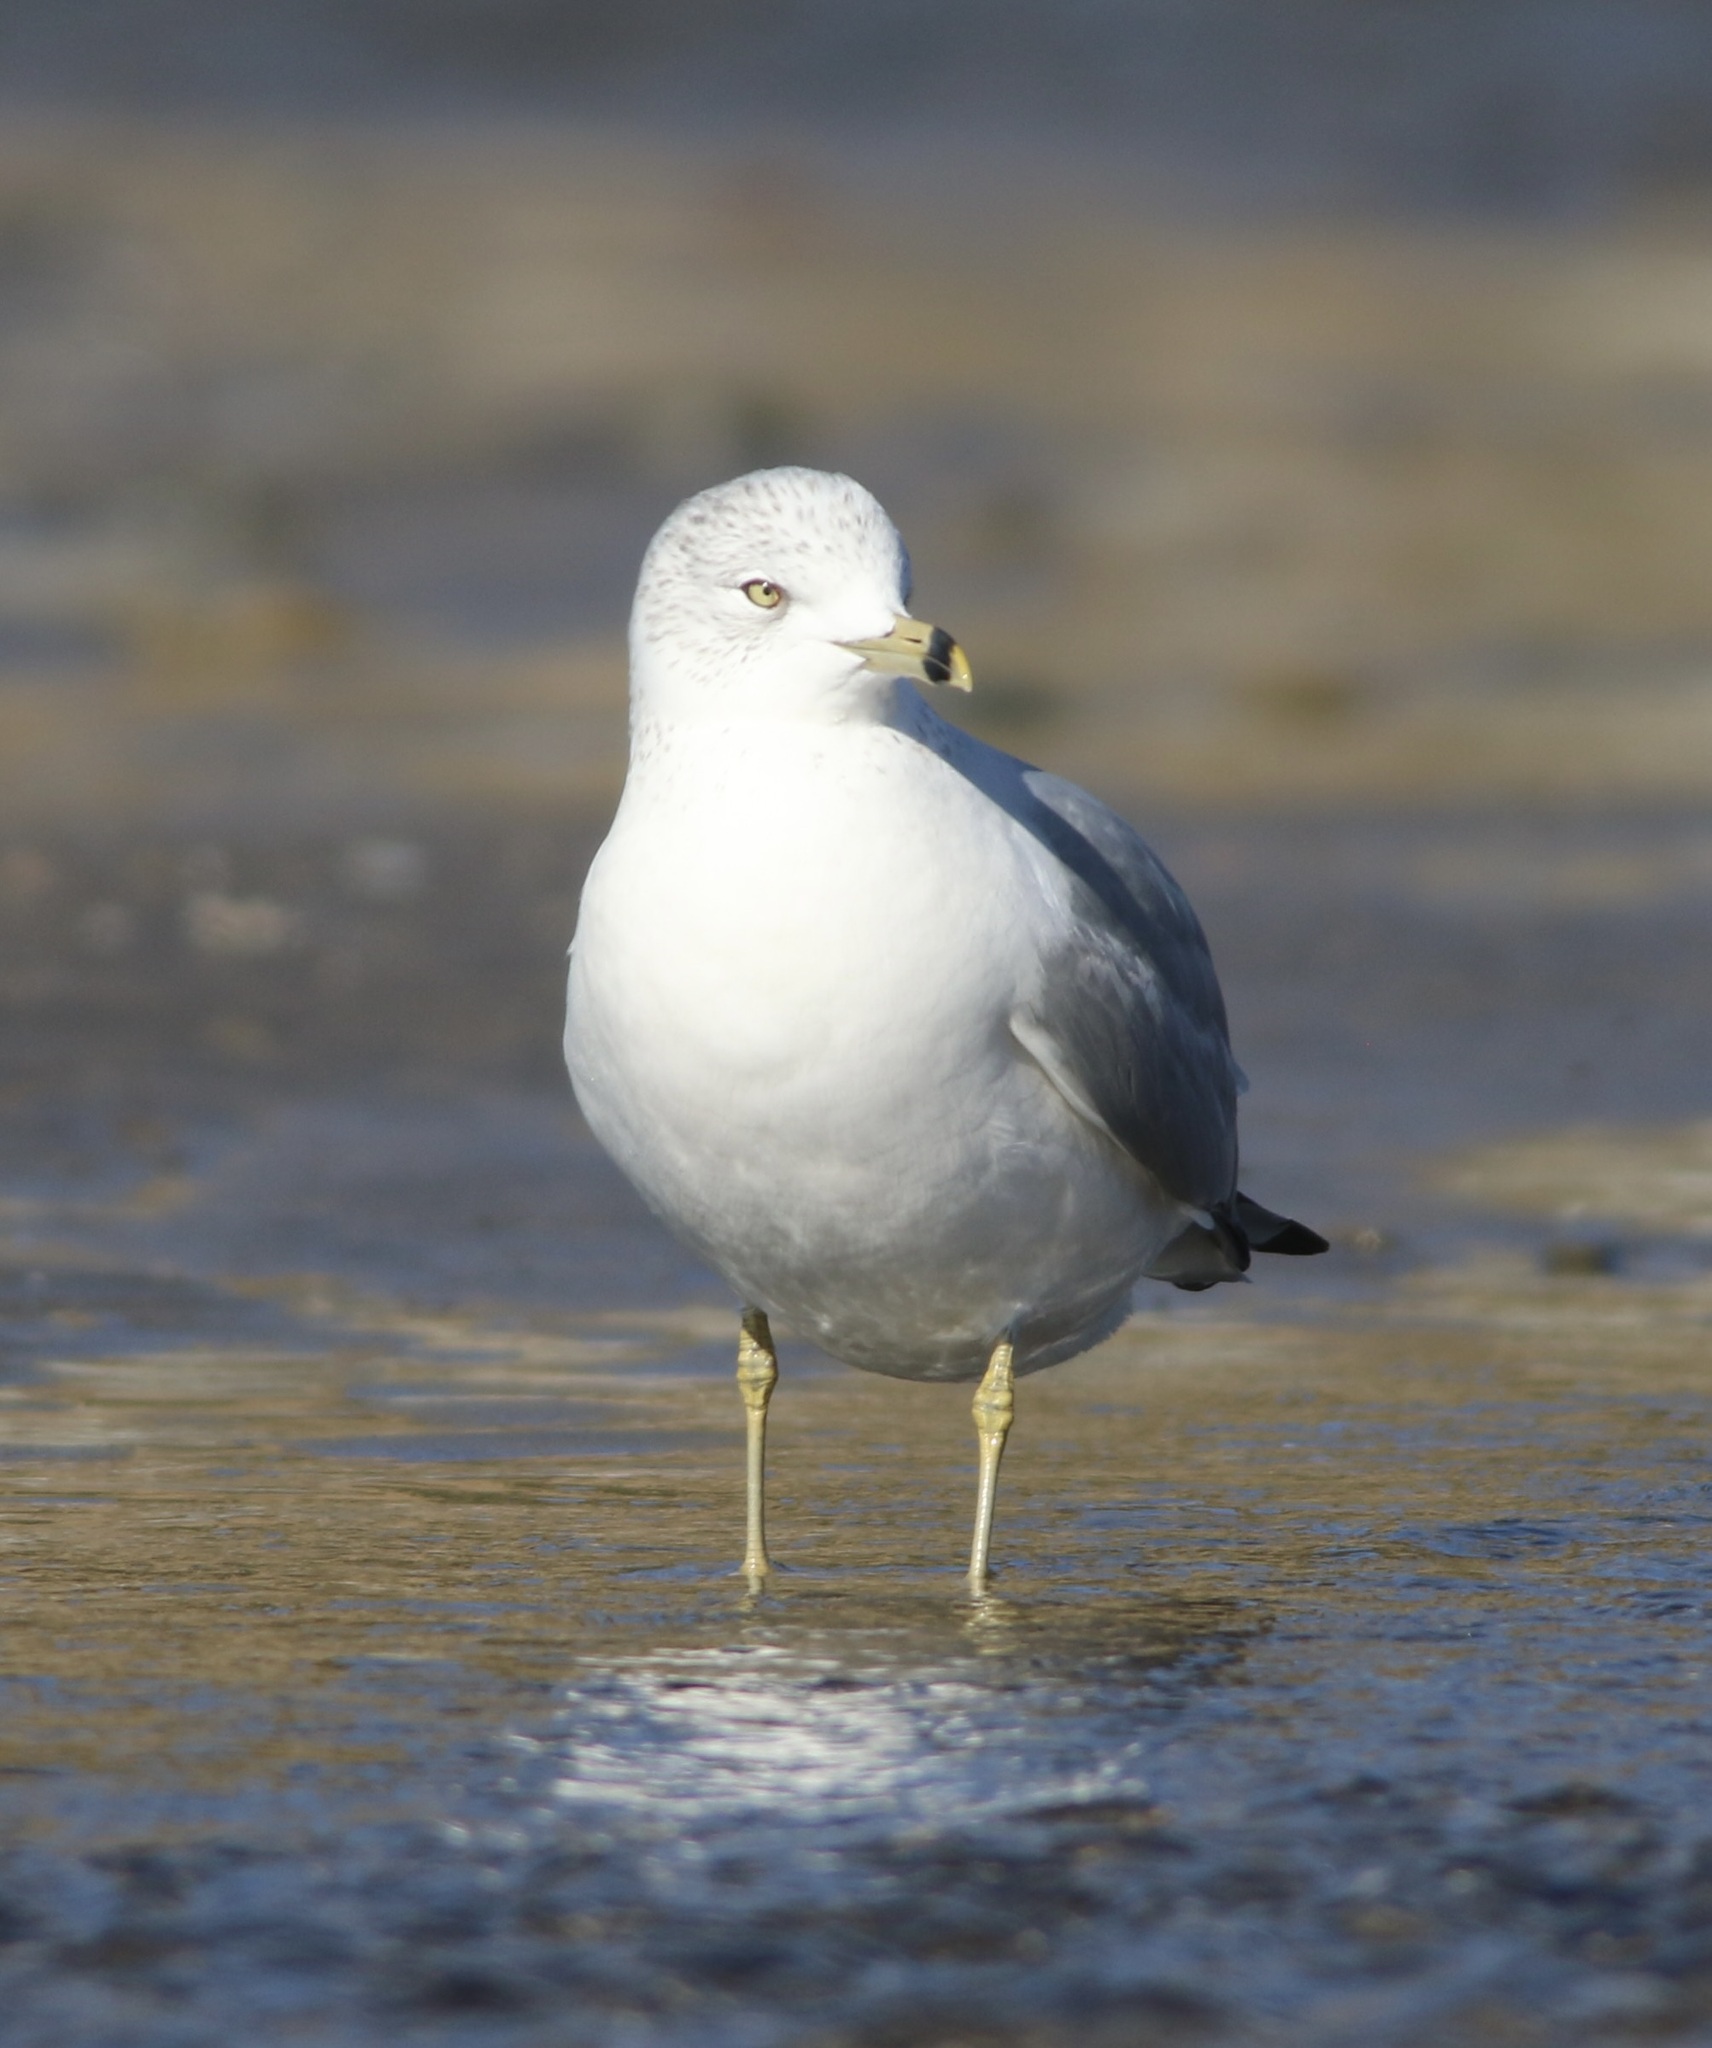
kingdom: Animalia
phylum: Chordata
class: Aves
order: Charadriiformes
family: Laridae
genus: Larus
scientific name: Larus delawarensis
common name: Ring-billed gull
